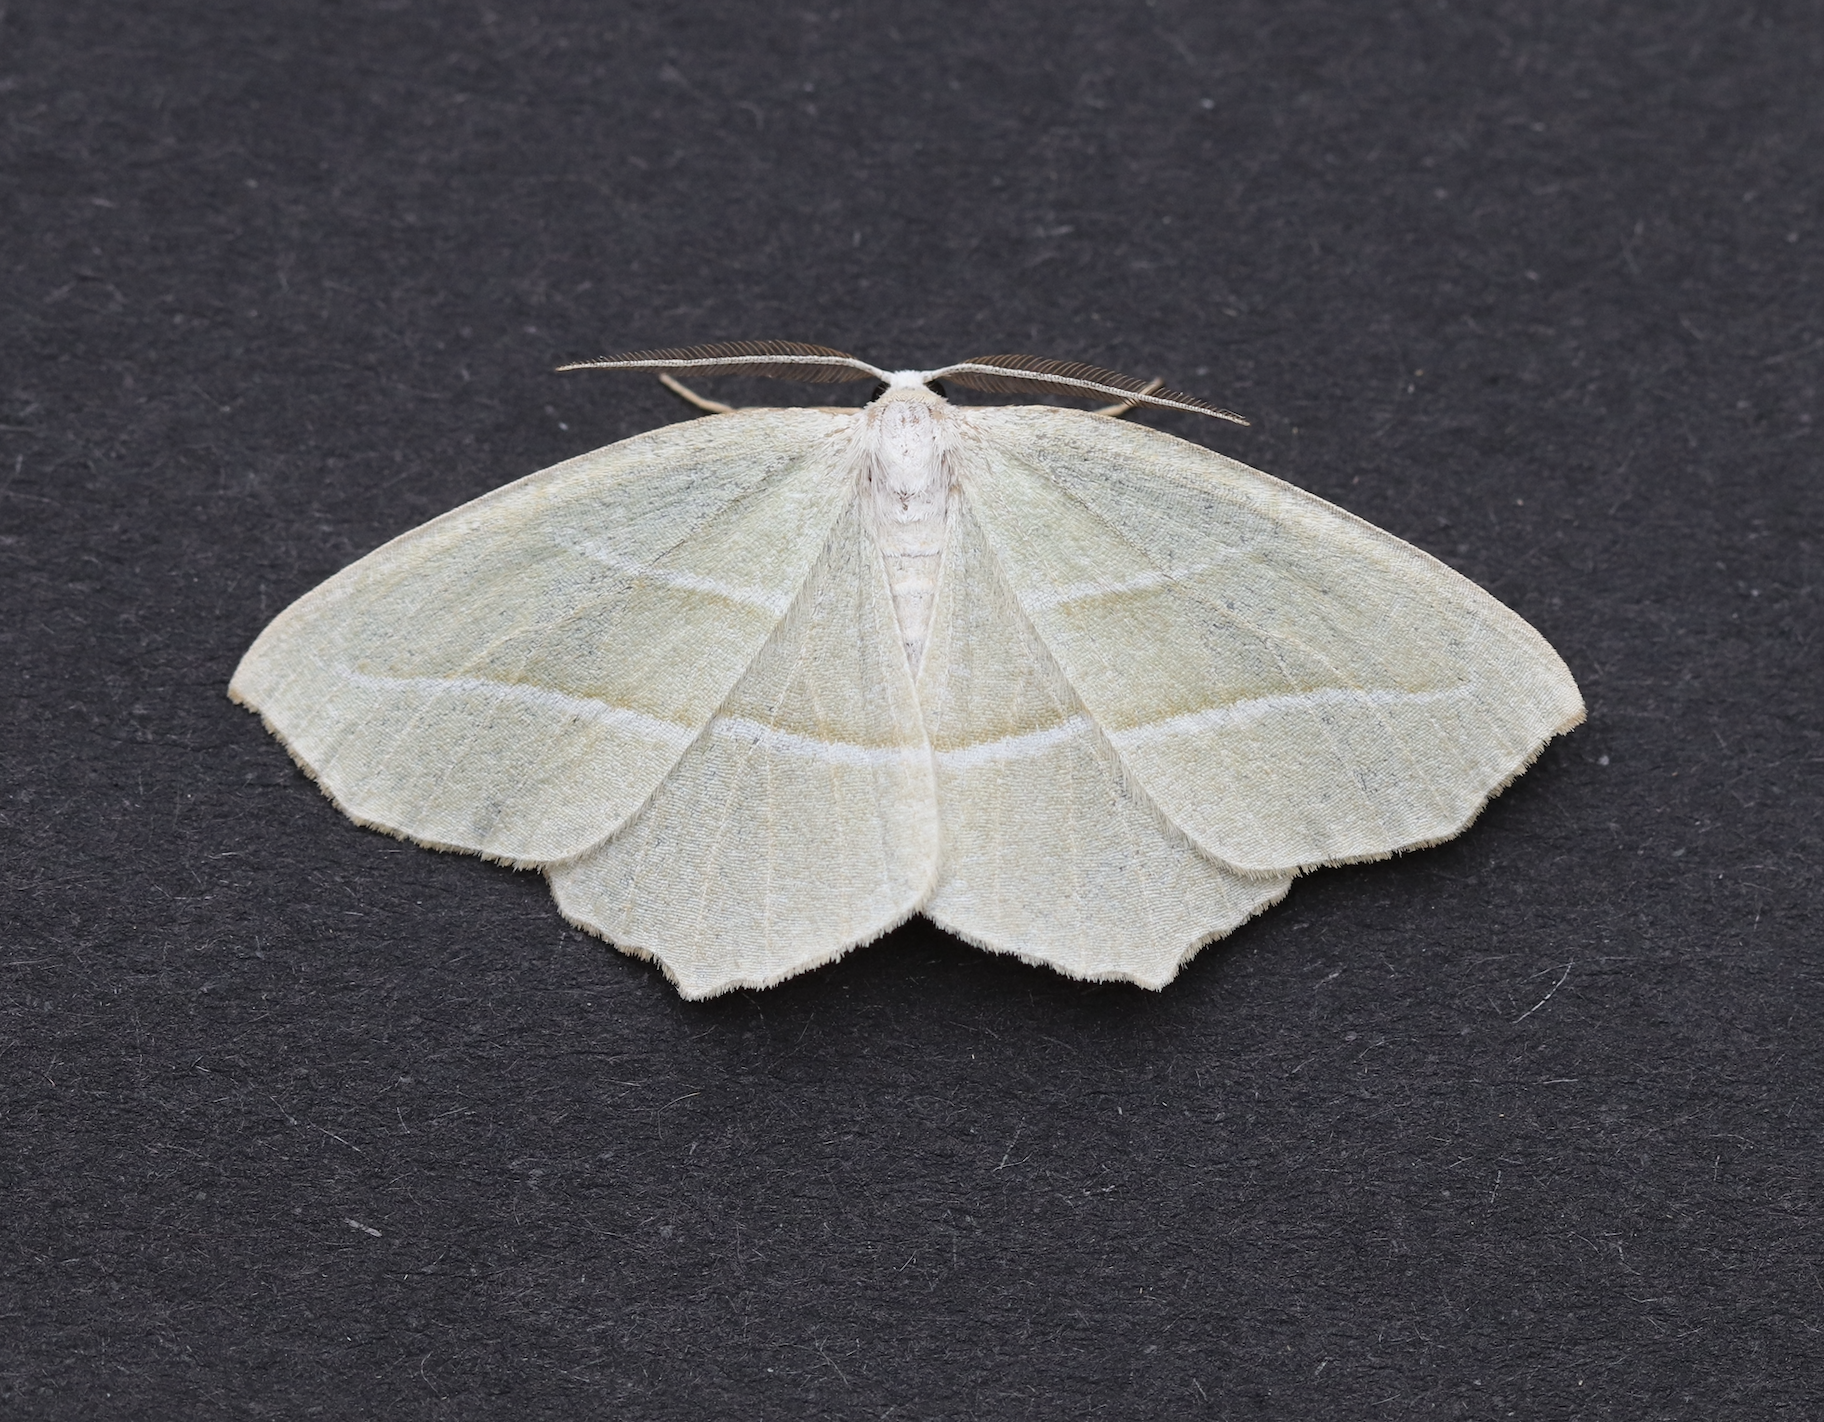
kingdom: Animalia
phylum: Arthropoda
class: Insecta
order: Lepidoptera
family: Geometridae
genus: Campaea
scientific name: Campaea perlata
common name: Fringed looper
